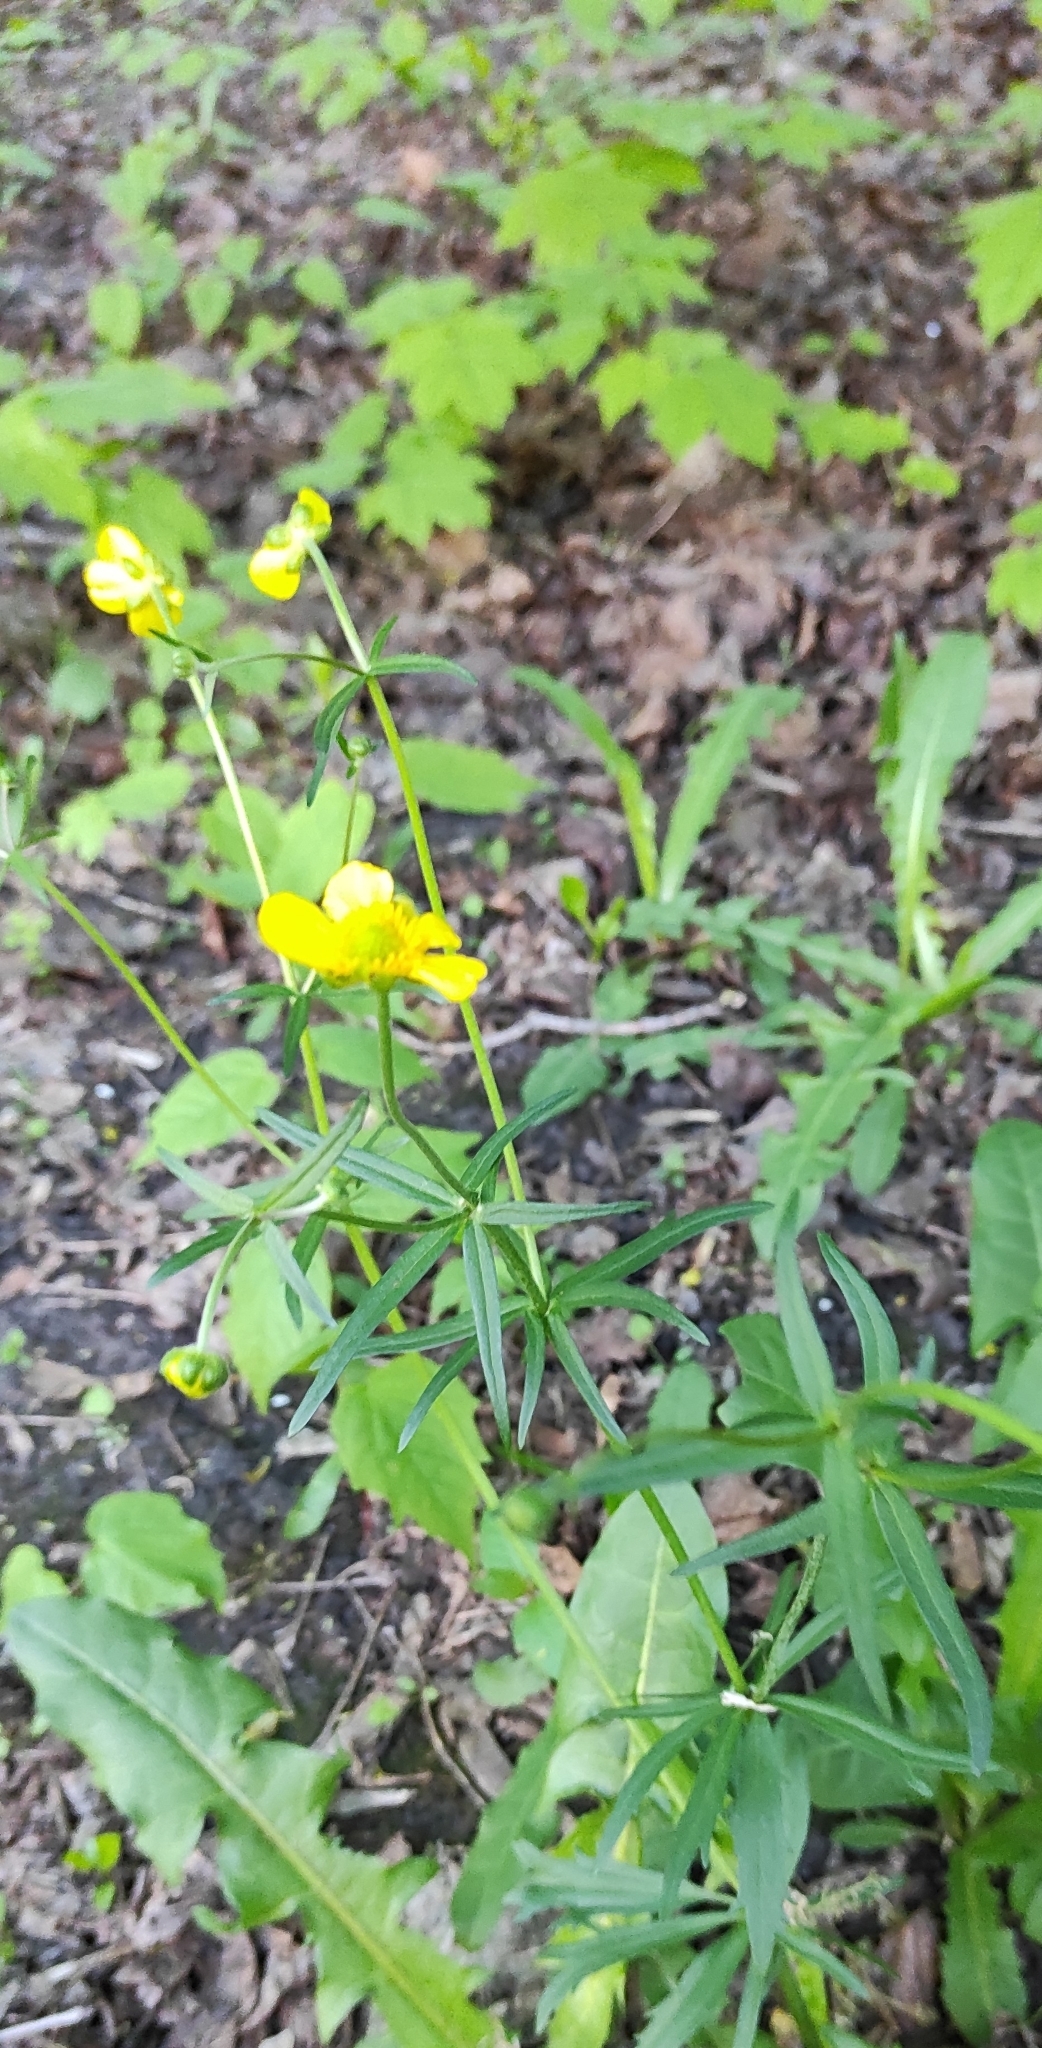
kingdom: Plantae
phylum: Tracheophyta
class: Magnoliopsida
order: Ranunculales
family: Ranunculaceae
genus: Ranunculus
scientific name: Ranunculus auricomus
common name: Goldilocks buttercup
